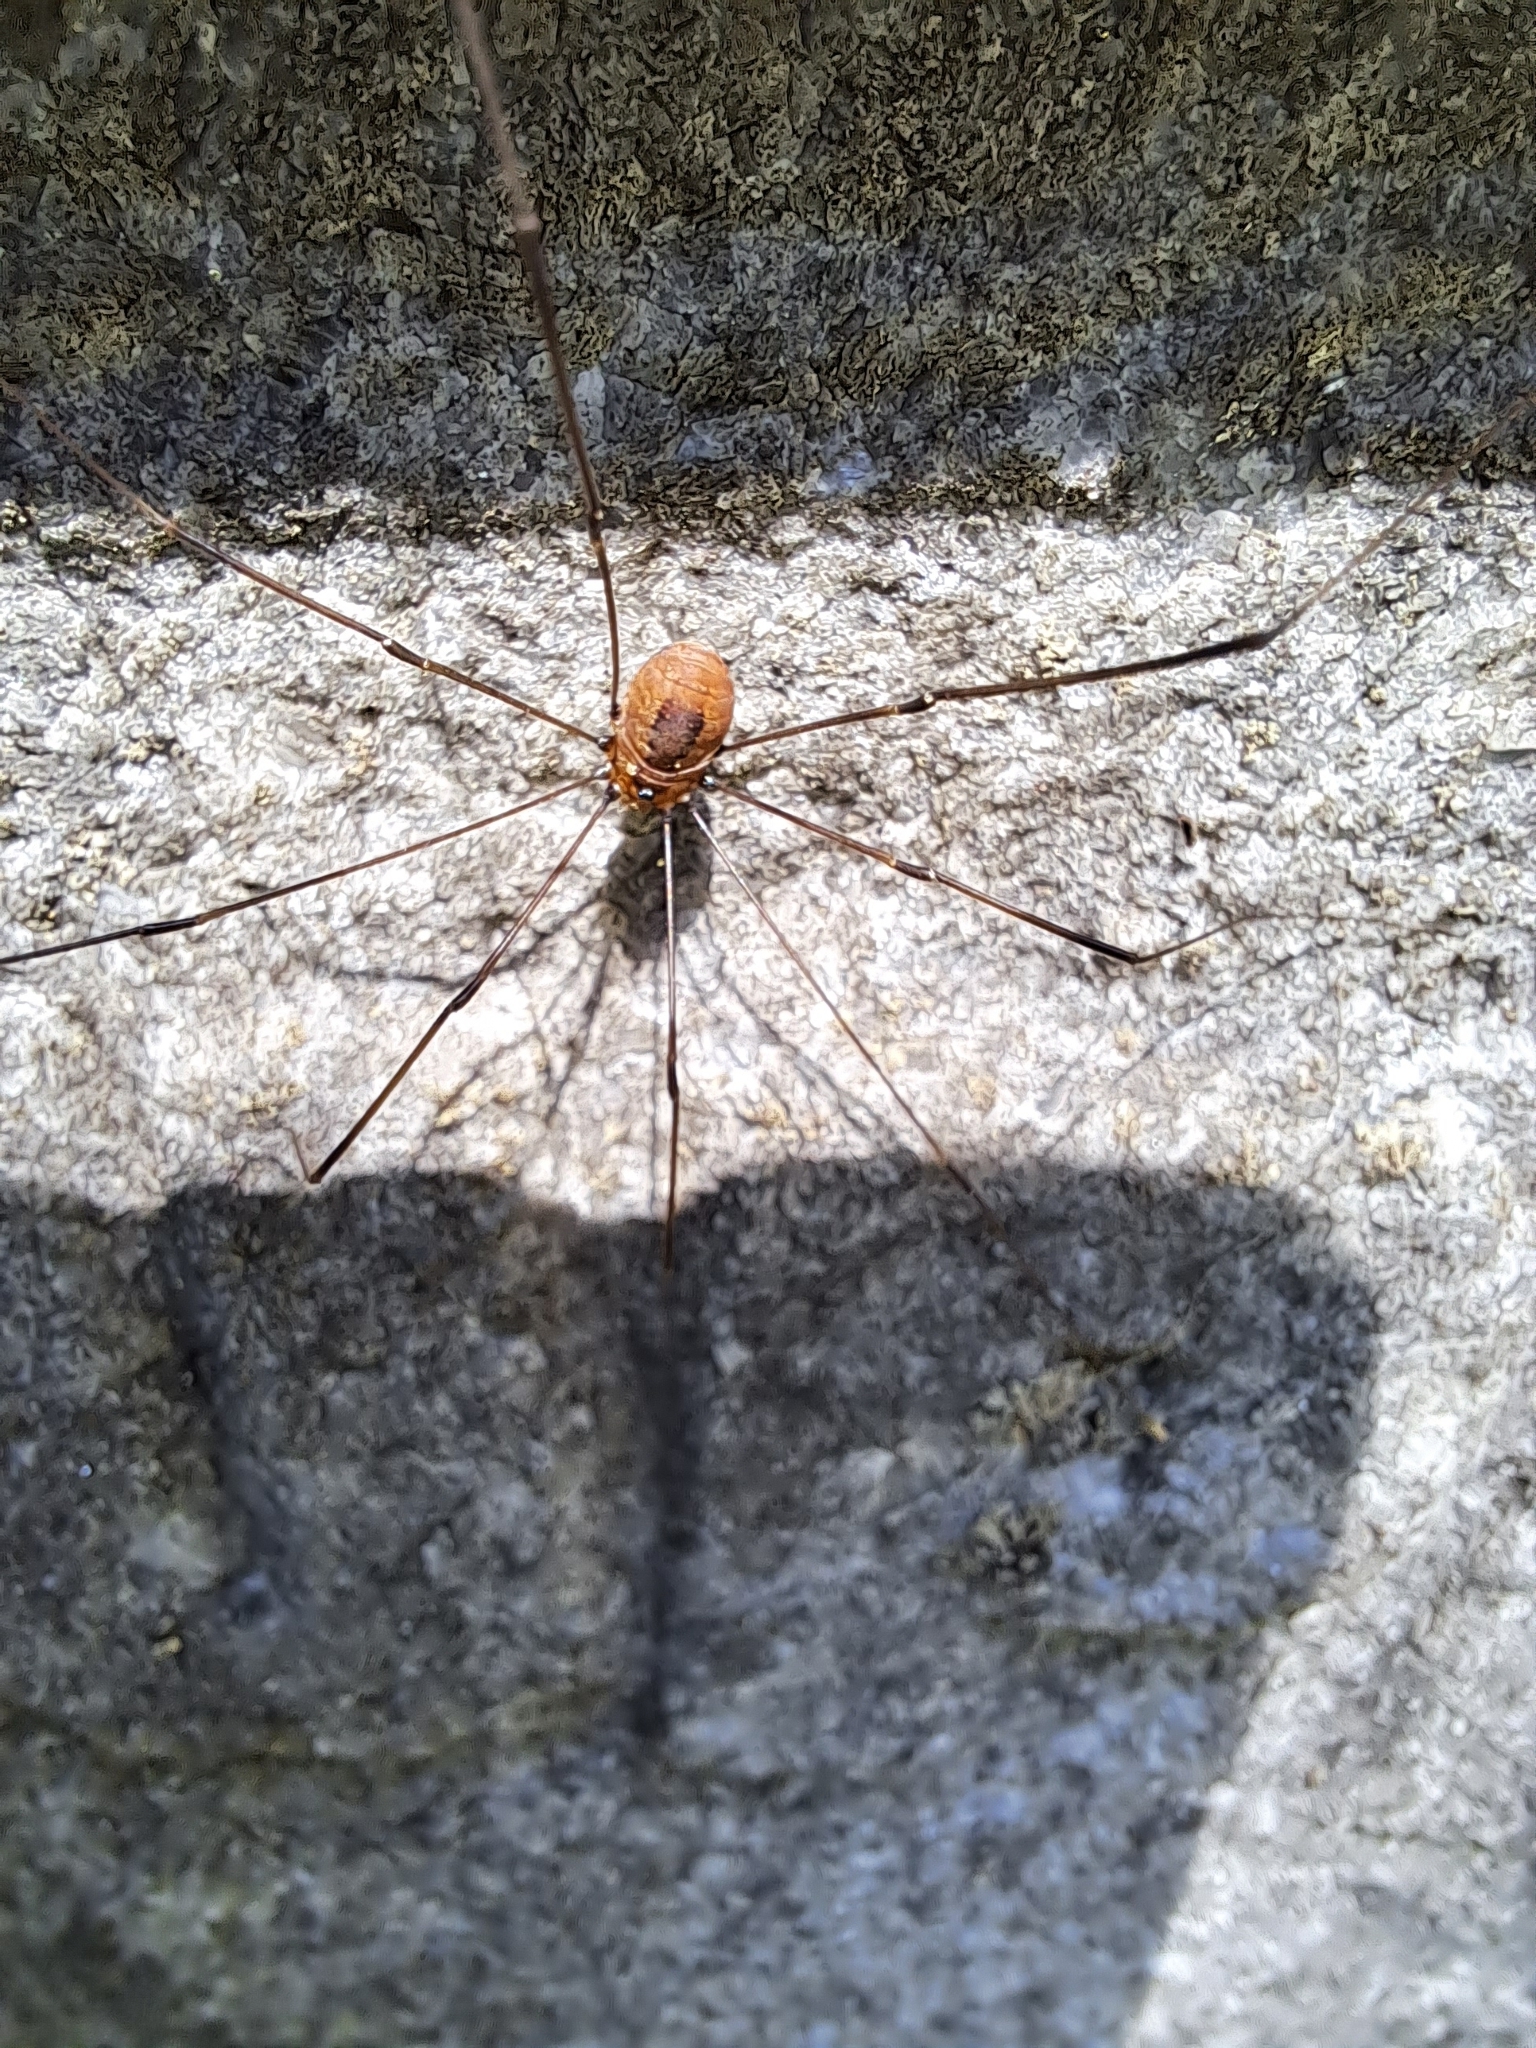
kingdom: Animalia
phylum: Arthropoda
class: Arachnida
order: Opiliones
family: Sclerosomatidae
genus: Leiobunum
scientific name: Leiobunum aldrichi
